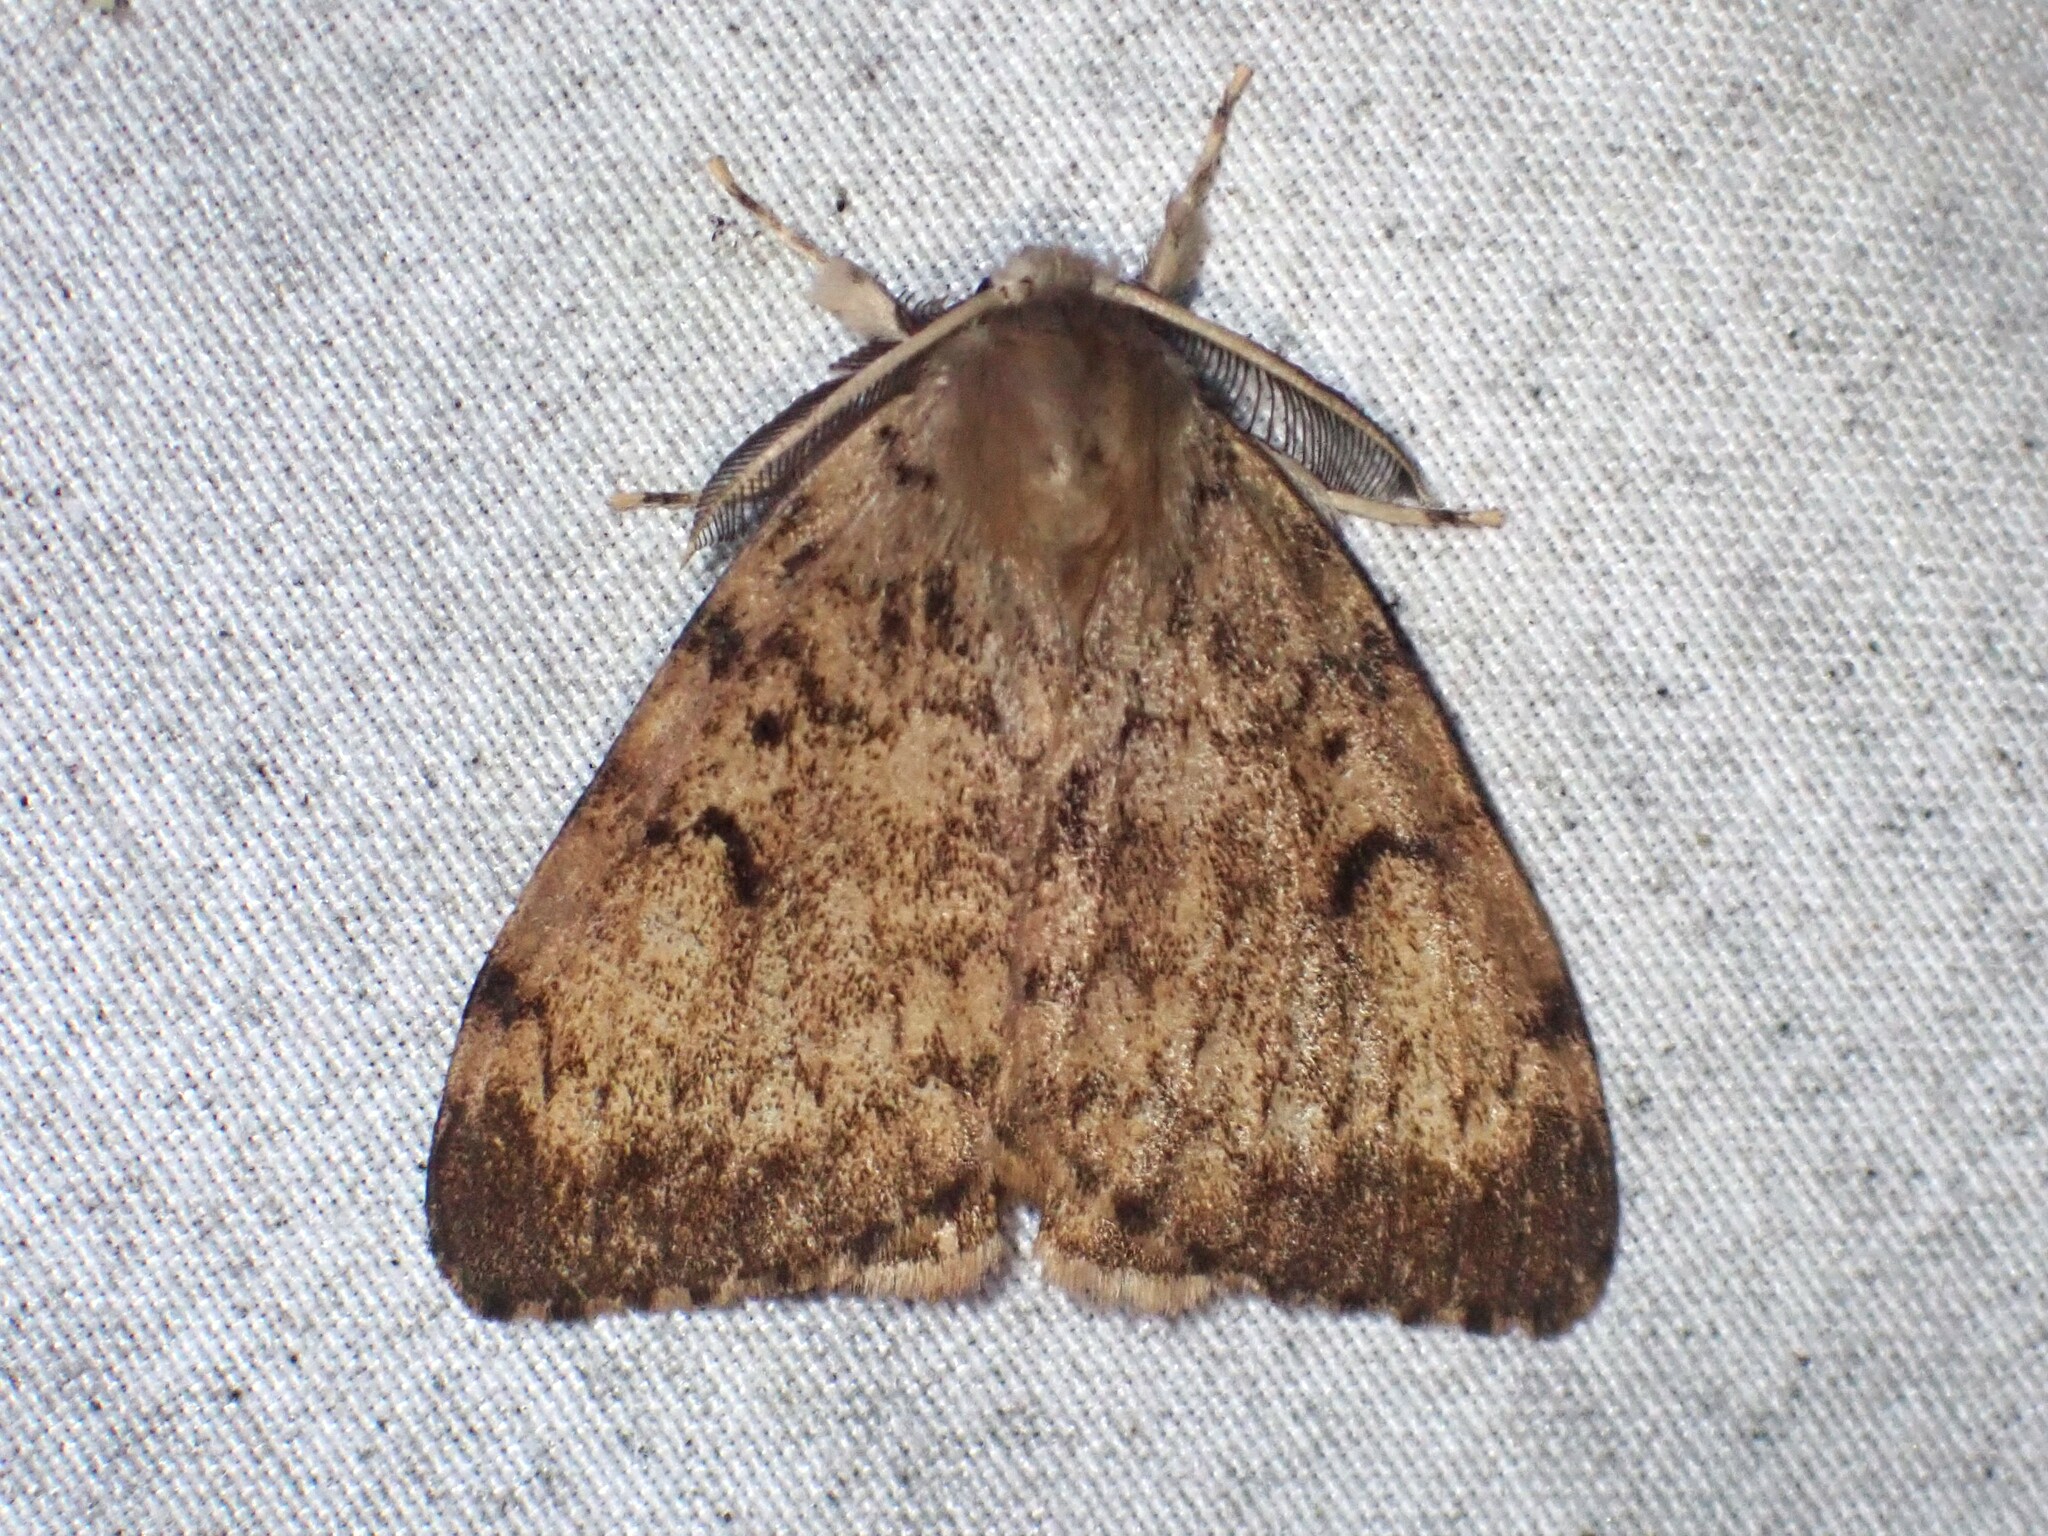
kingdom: Animalia
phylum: Arthropoda
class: Insecta
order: Lepidoptera
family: Erebidae
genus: Lymantria
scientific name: Lymantria dispar
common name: Gypsy moth
